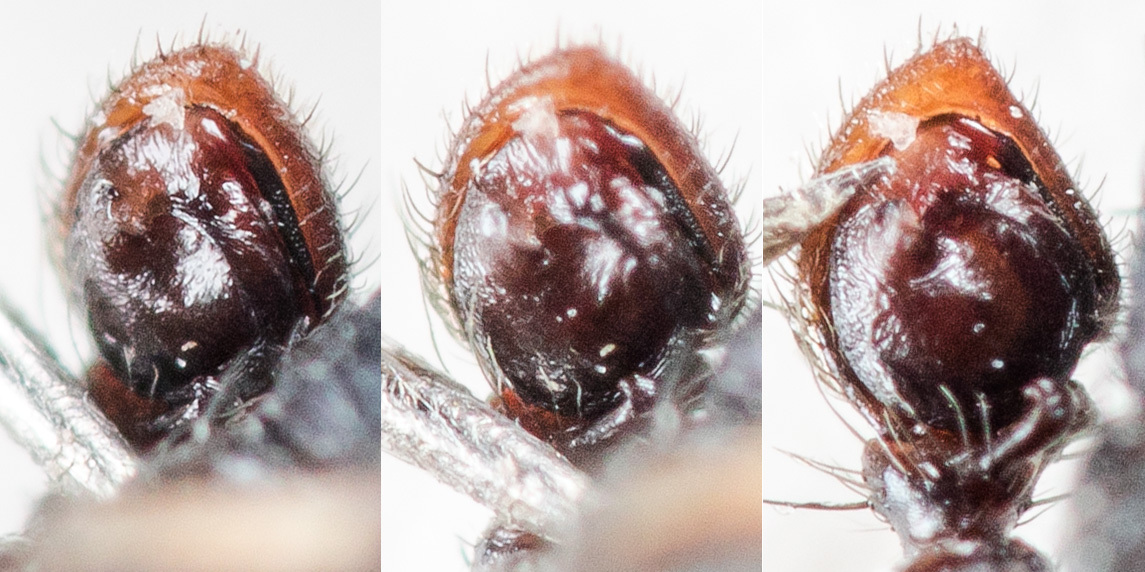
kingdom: Animalia
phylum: Arthropoda
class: Arachnida
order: Araneae
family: Thomisidae
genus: Ozyptila
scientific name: Ozyptila lugubris
